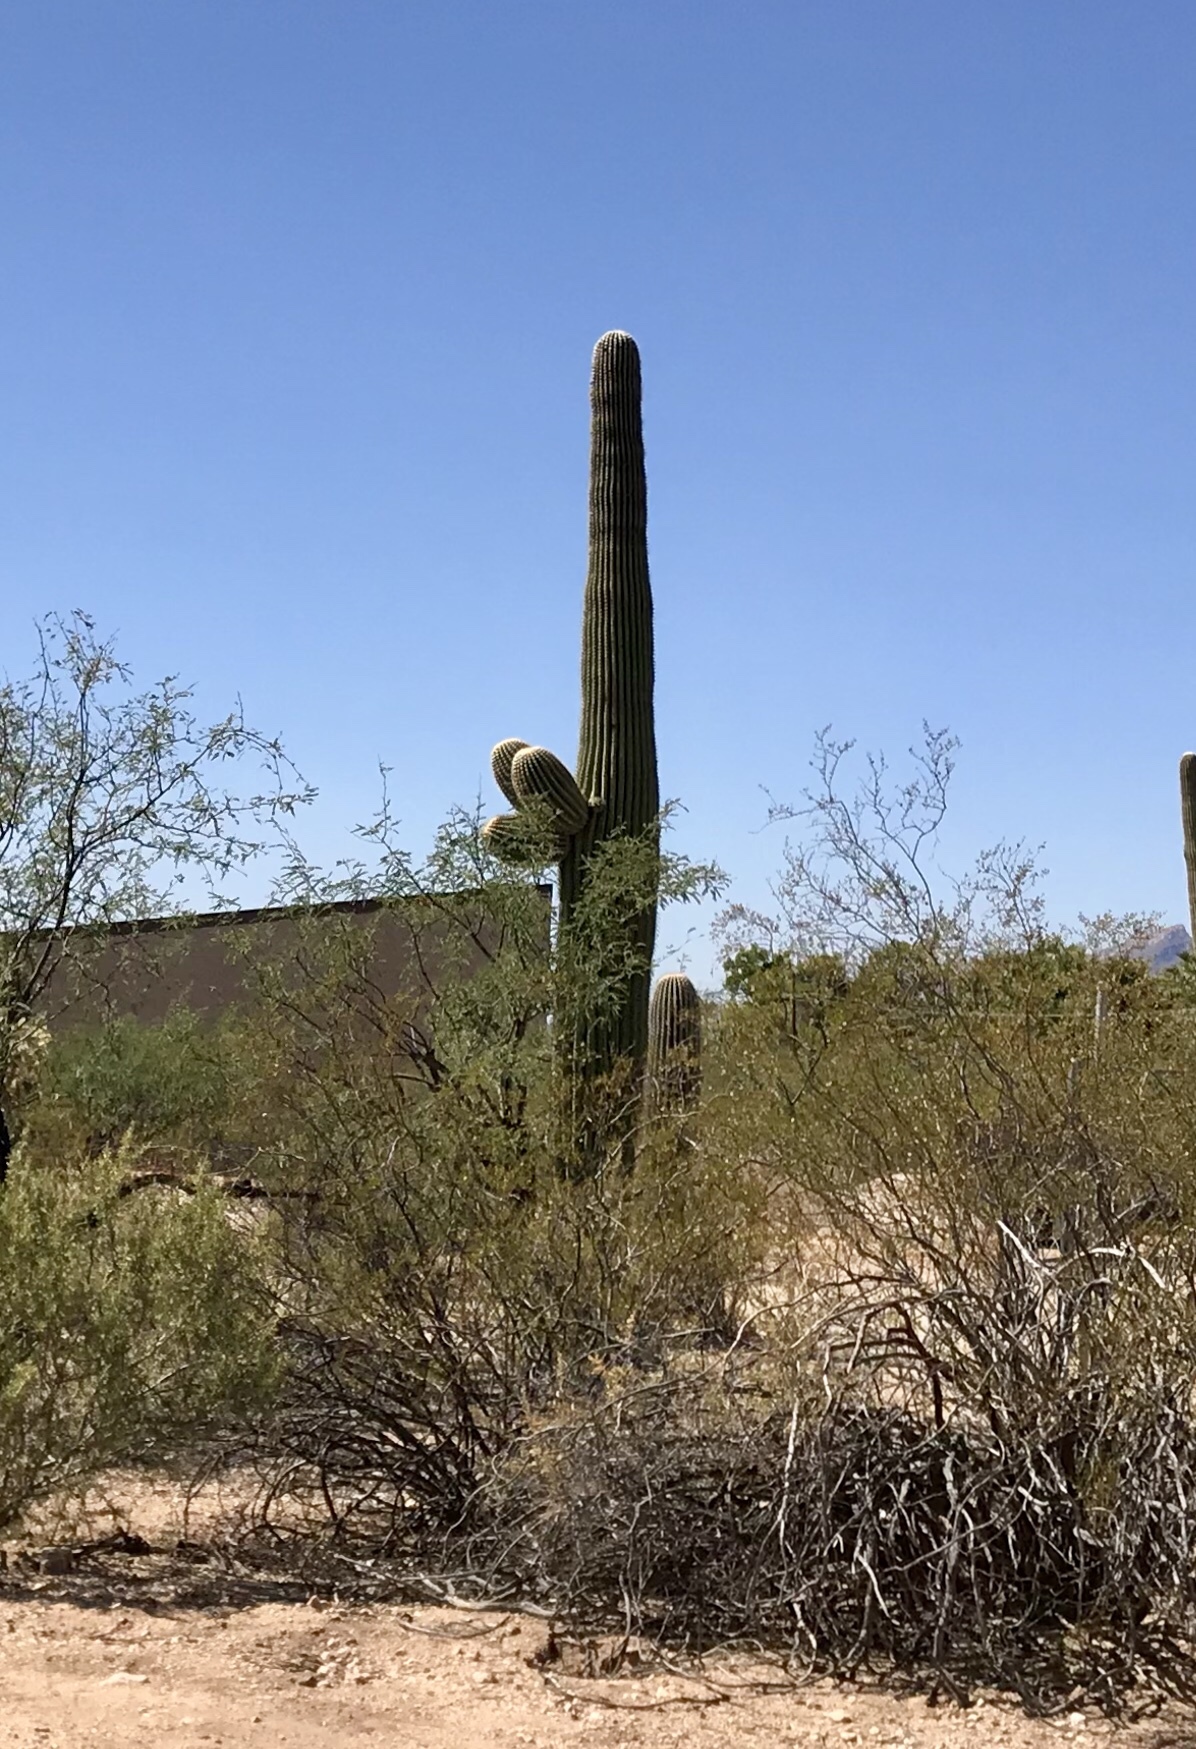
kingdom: Plantae
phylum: Tracheophyta
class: Magnoliopsida
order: Caryophyllales
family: Cactaceae
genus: Carnegiea
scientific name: Carnegiea gigantea
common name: Saguaro
